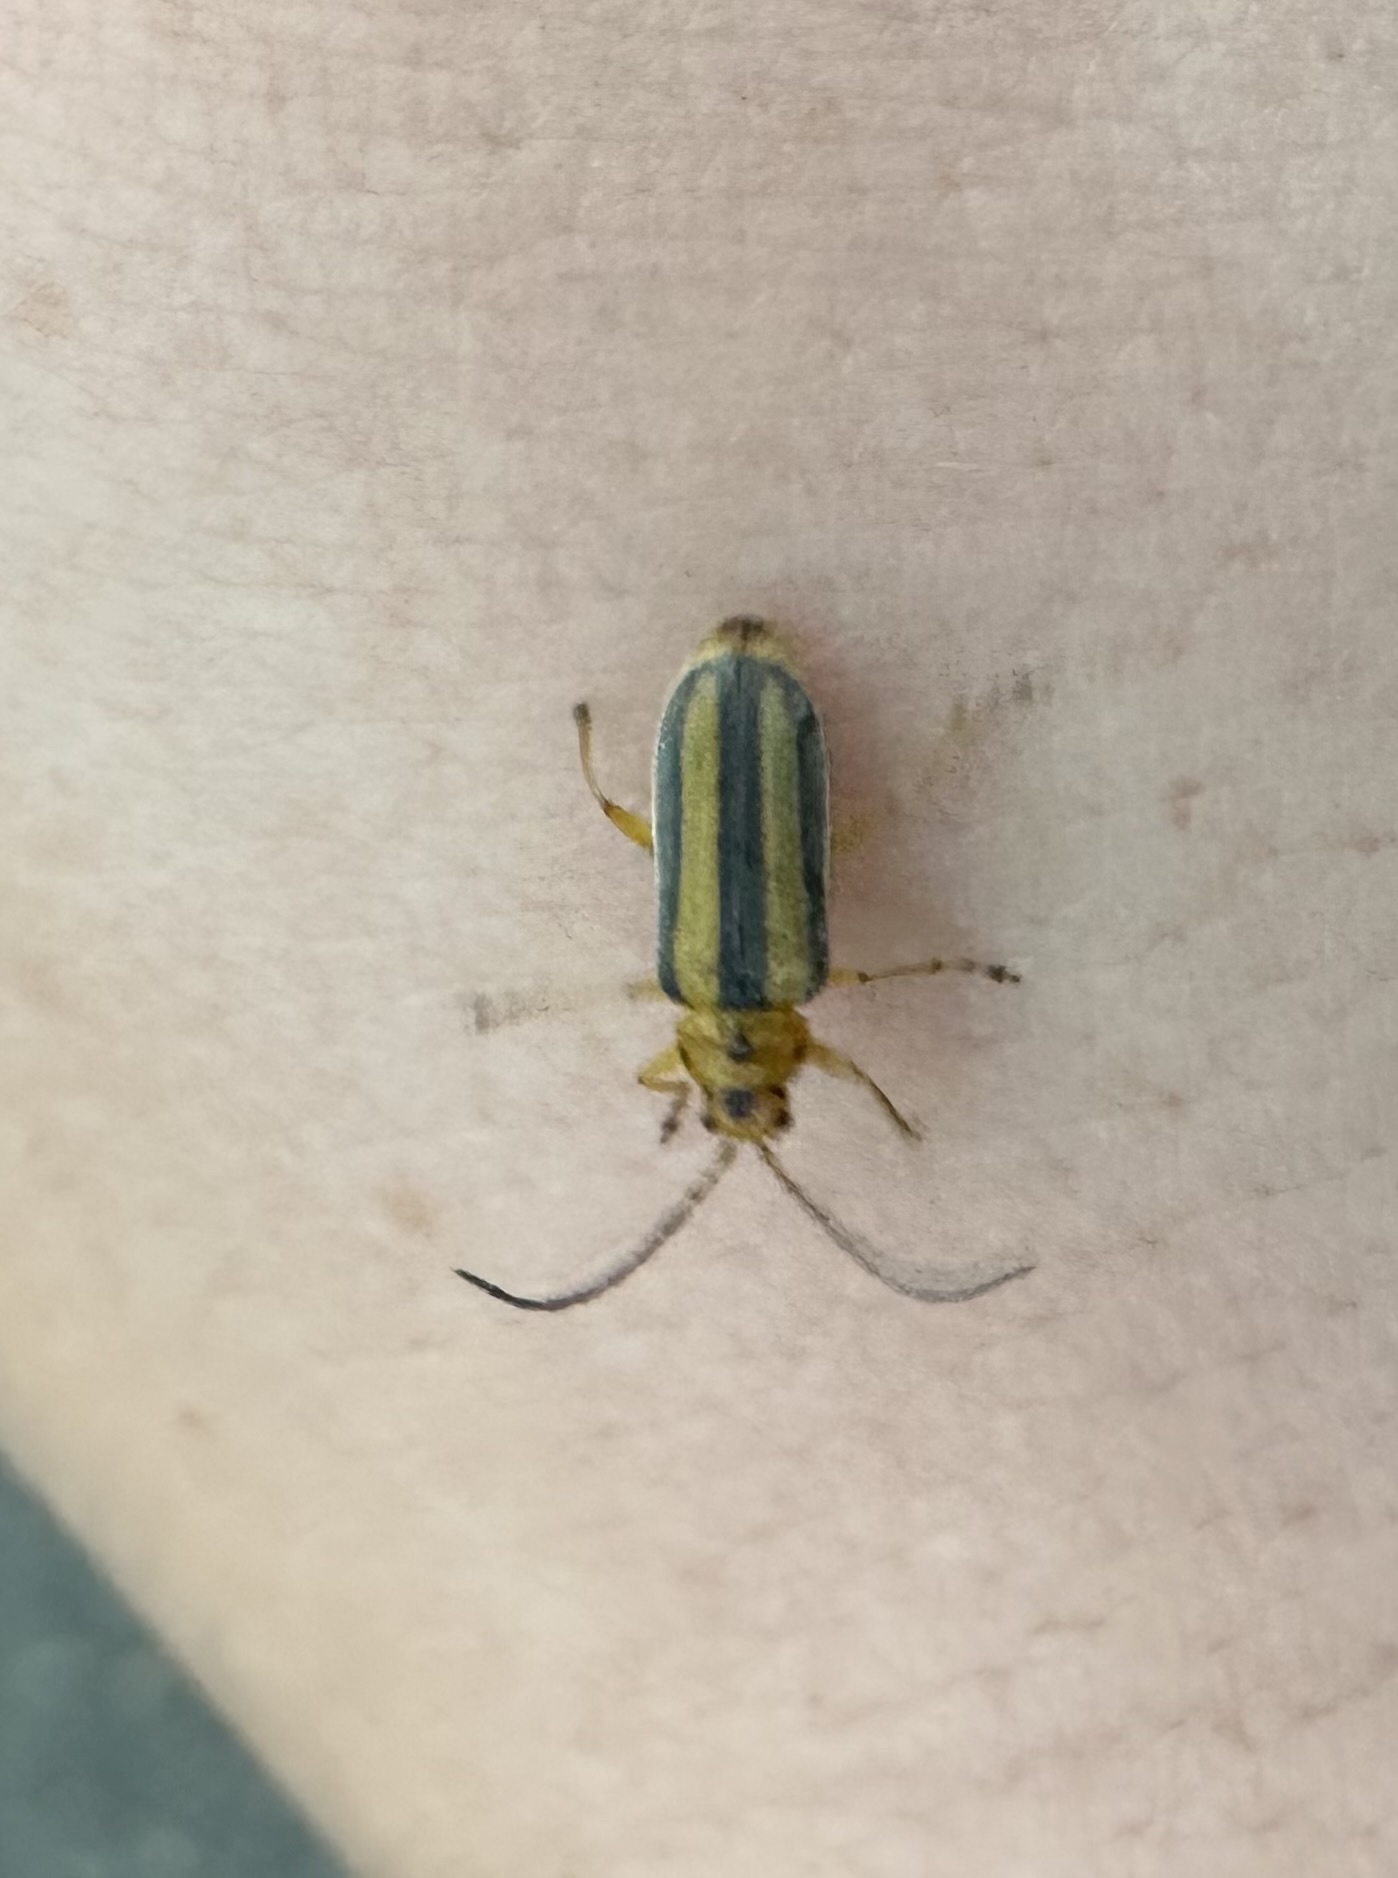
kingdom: Animalia
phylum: Arthropoda
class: Insecta
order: Coleoptera
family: Chrysomelidae
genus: Trirhabda
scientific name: Trirhabda canadensis
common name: Goldenrod leaf beetle
